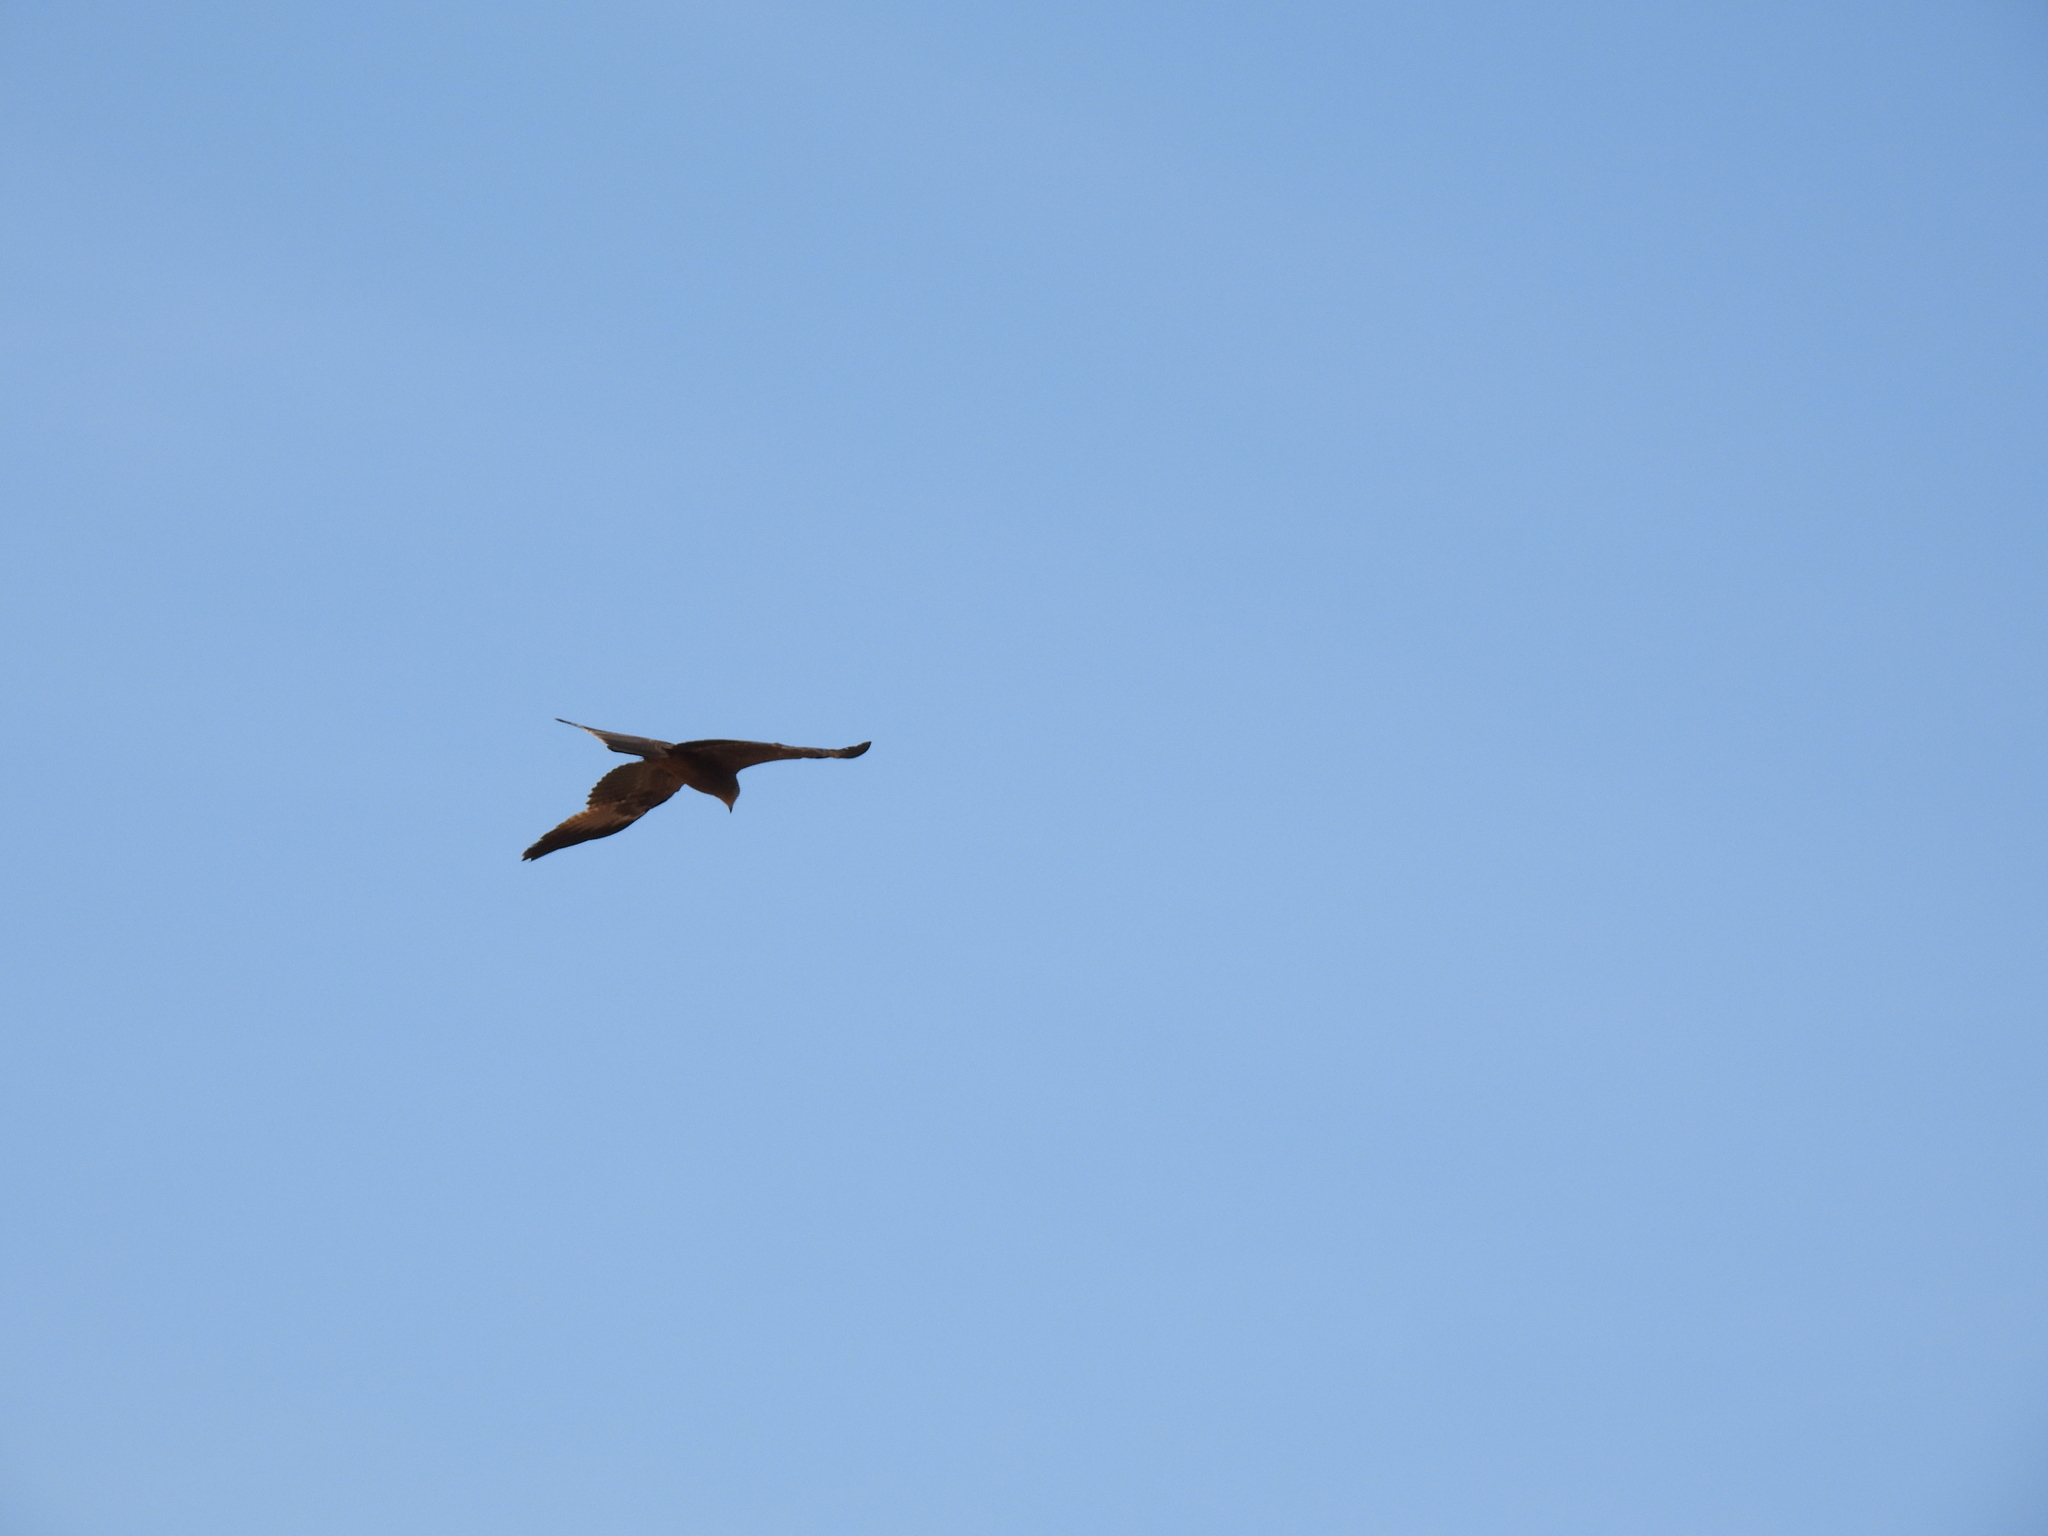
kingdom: Animalia
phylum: Chordata
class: Aves
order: Accipitriformes
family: Accipitridae
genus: Milvus
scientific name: Milvus migrans
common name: Black kite
